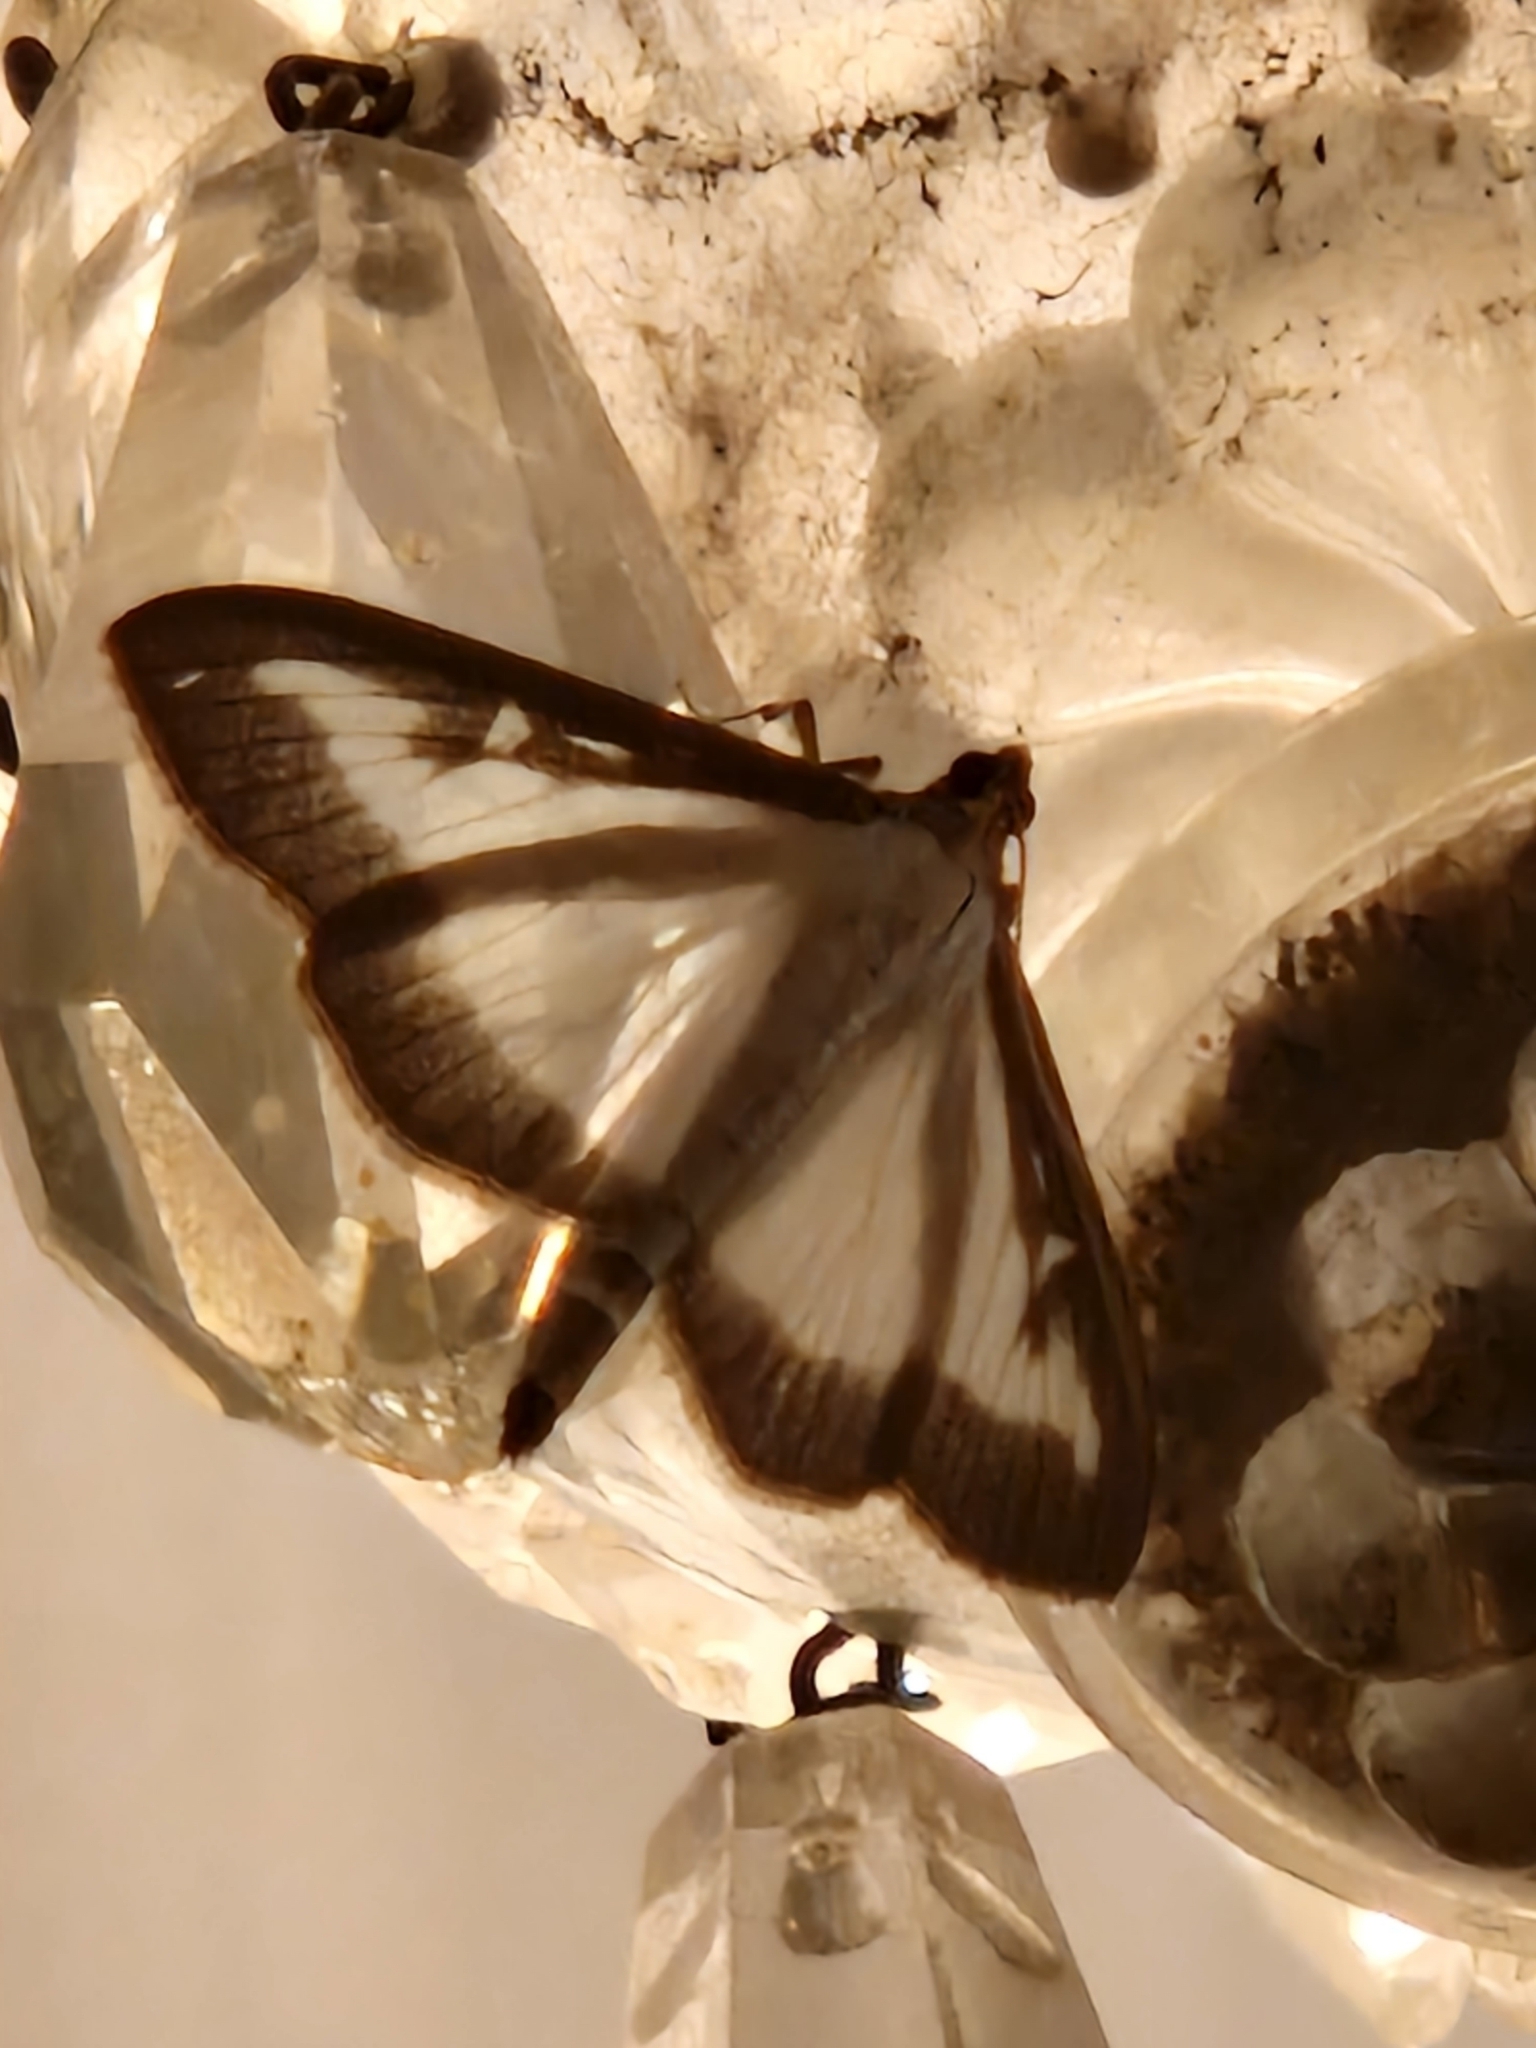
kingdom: Animalia
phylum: Arthropoda
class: Insecta
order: Lepidoptera
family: Crambidae
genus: Cydalima
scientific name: Cydalima perspectalis
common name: Box tree moth
